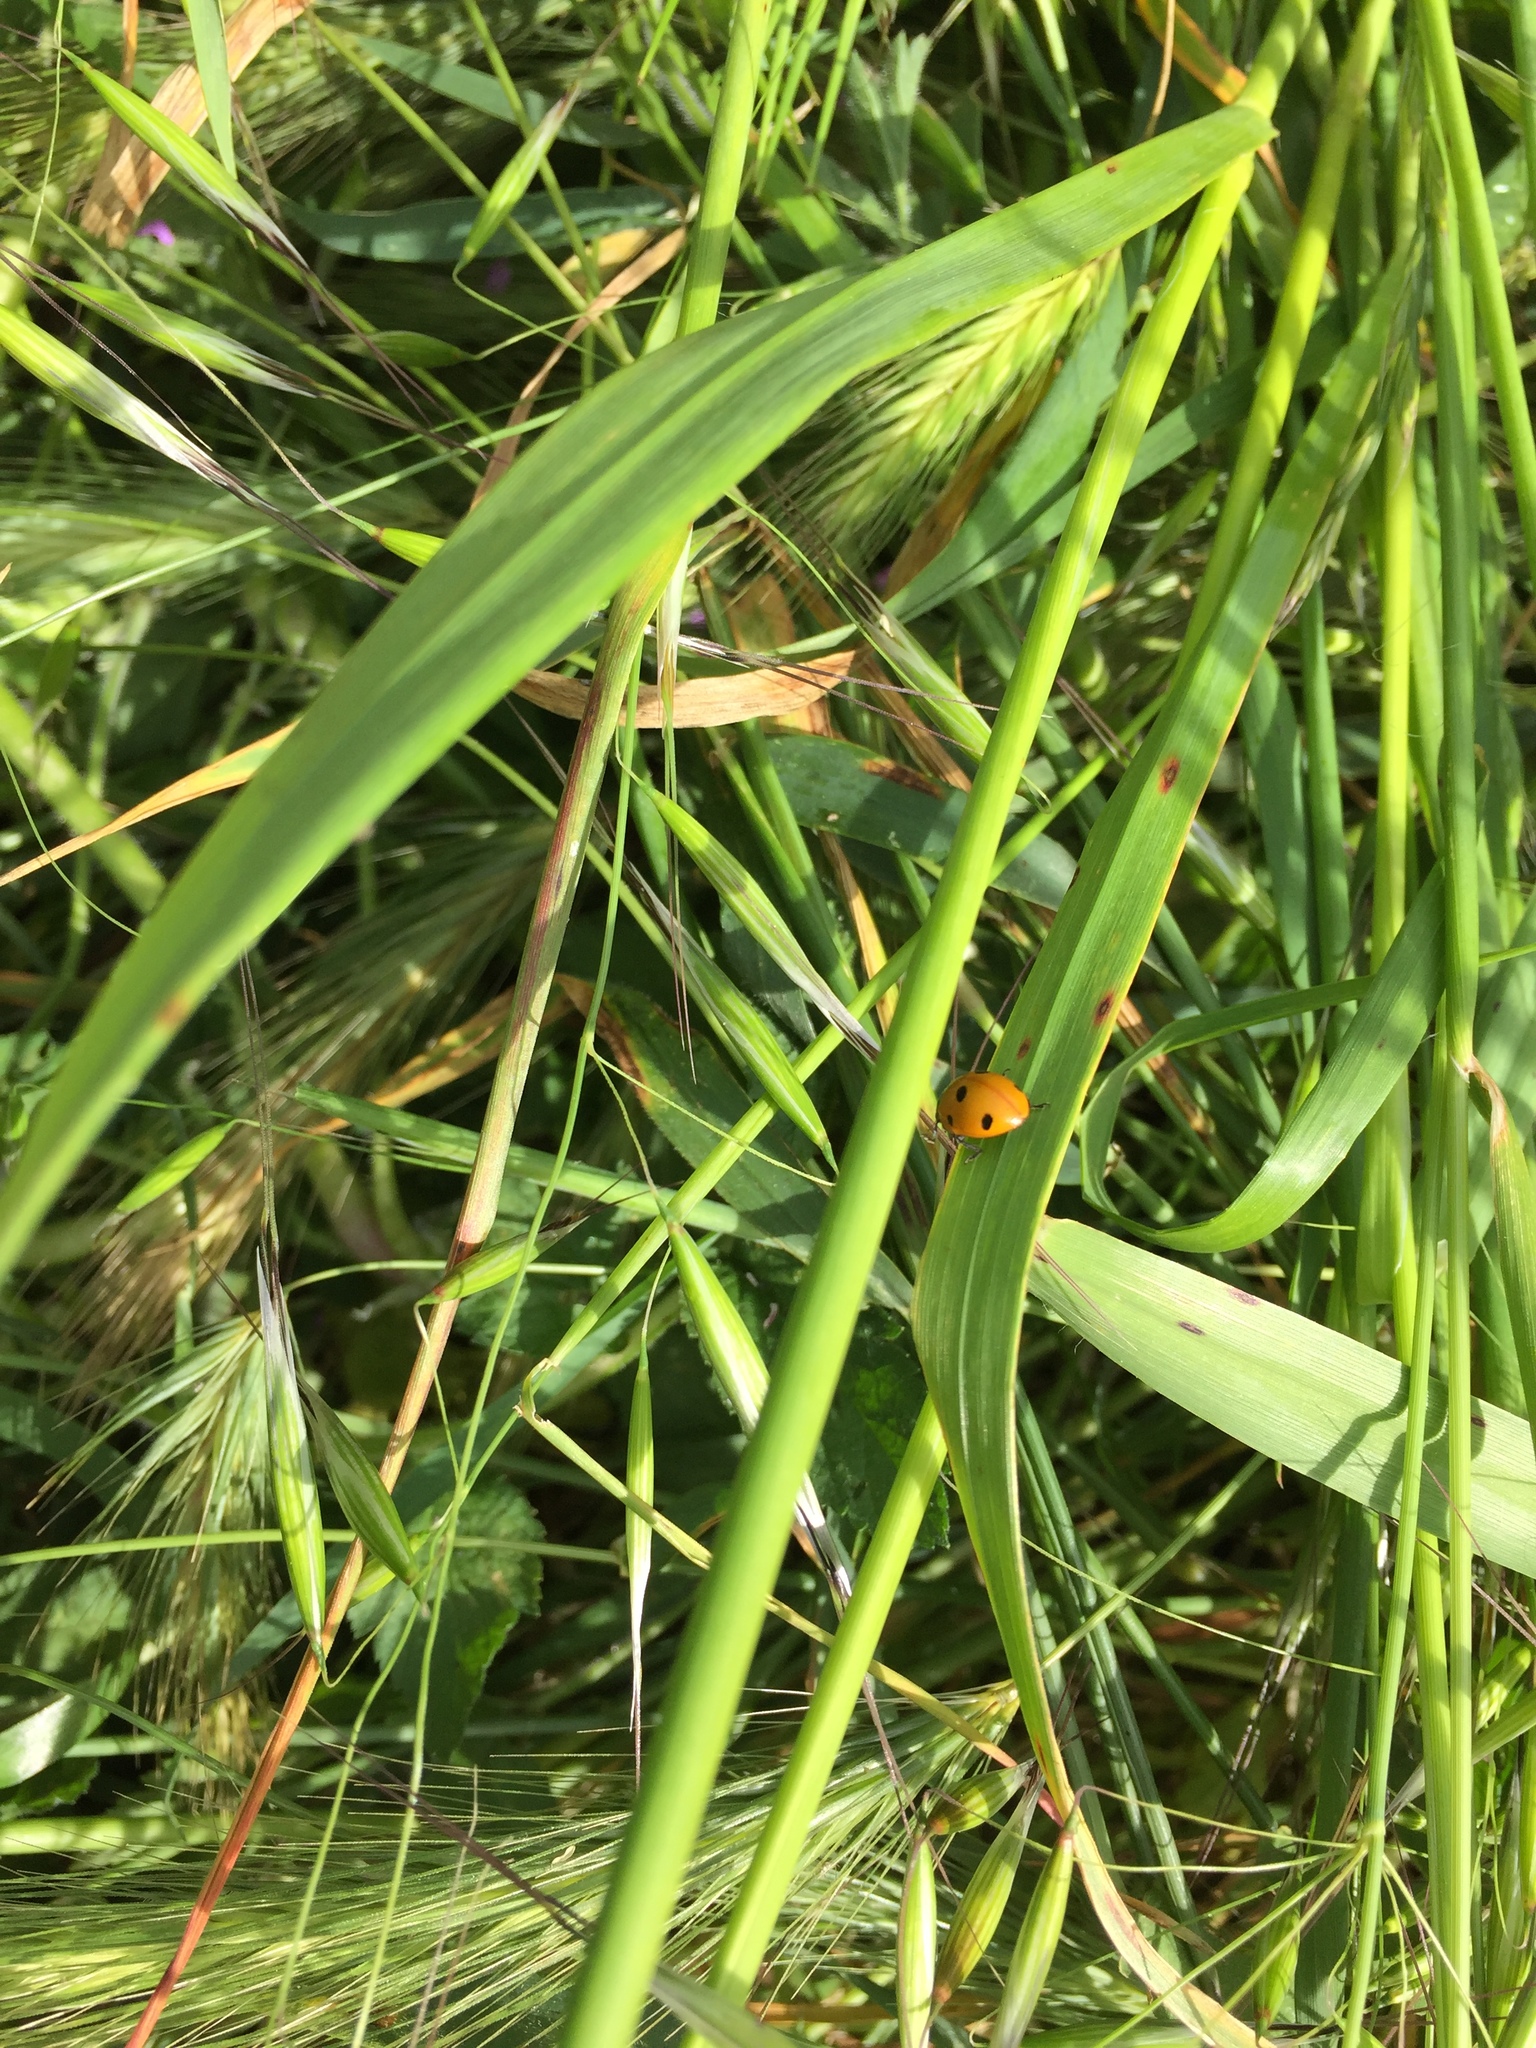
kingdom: Animalia
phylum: Arthropoda
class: Insecta
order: Coleoptera
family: Coccinellidae
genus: Coccinella
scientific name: Coccinella septempunctata
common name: Sevenspotted lady beetle
